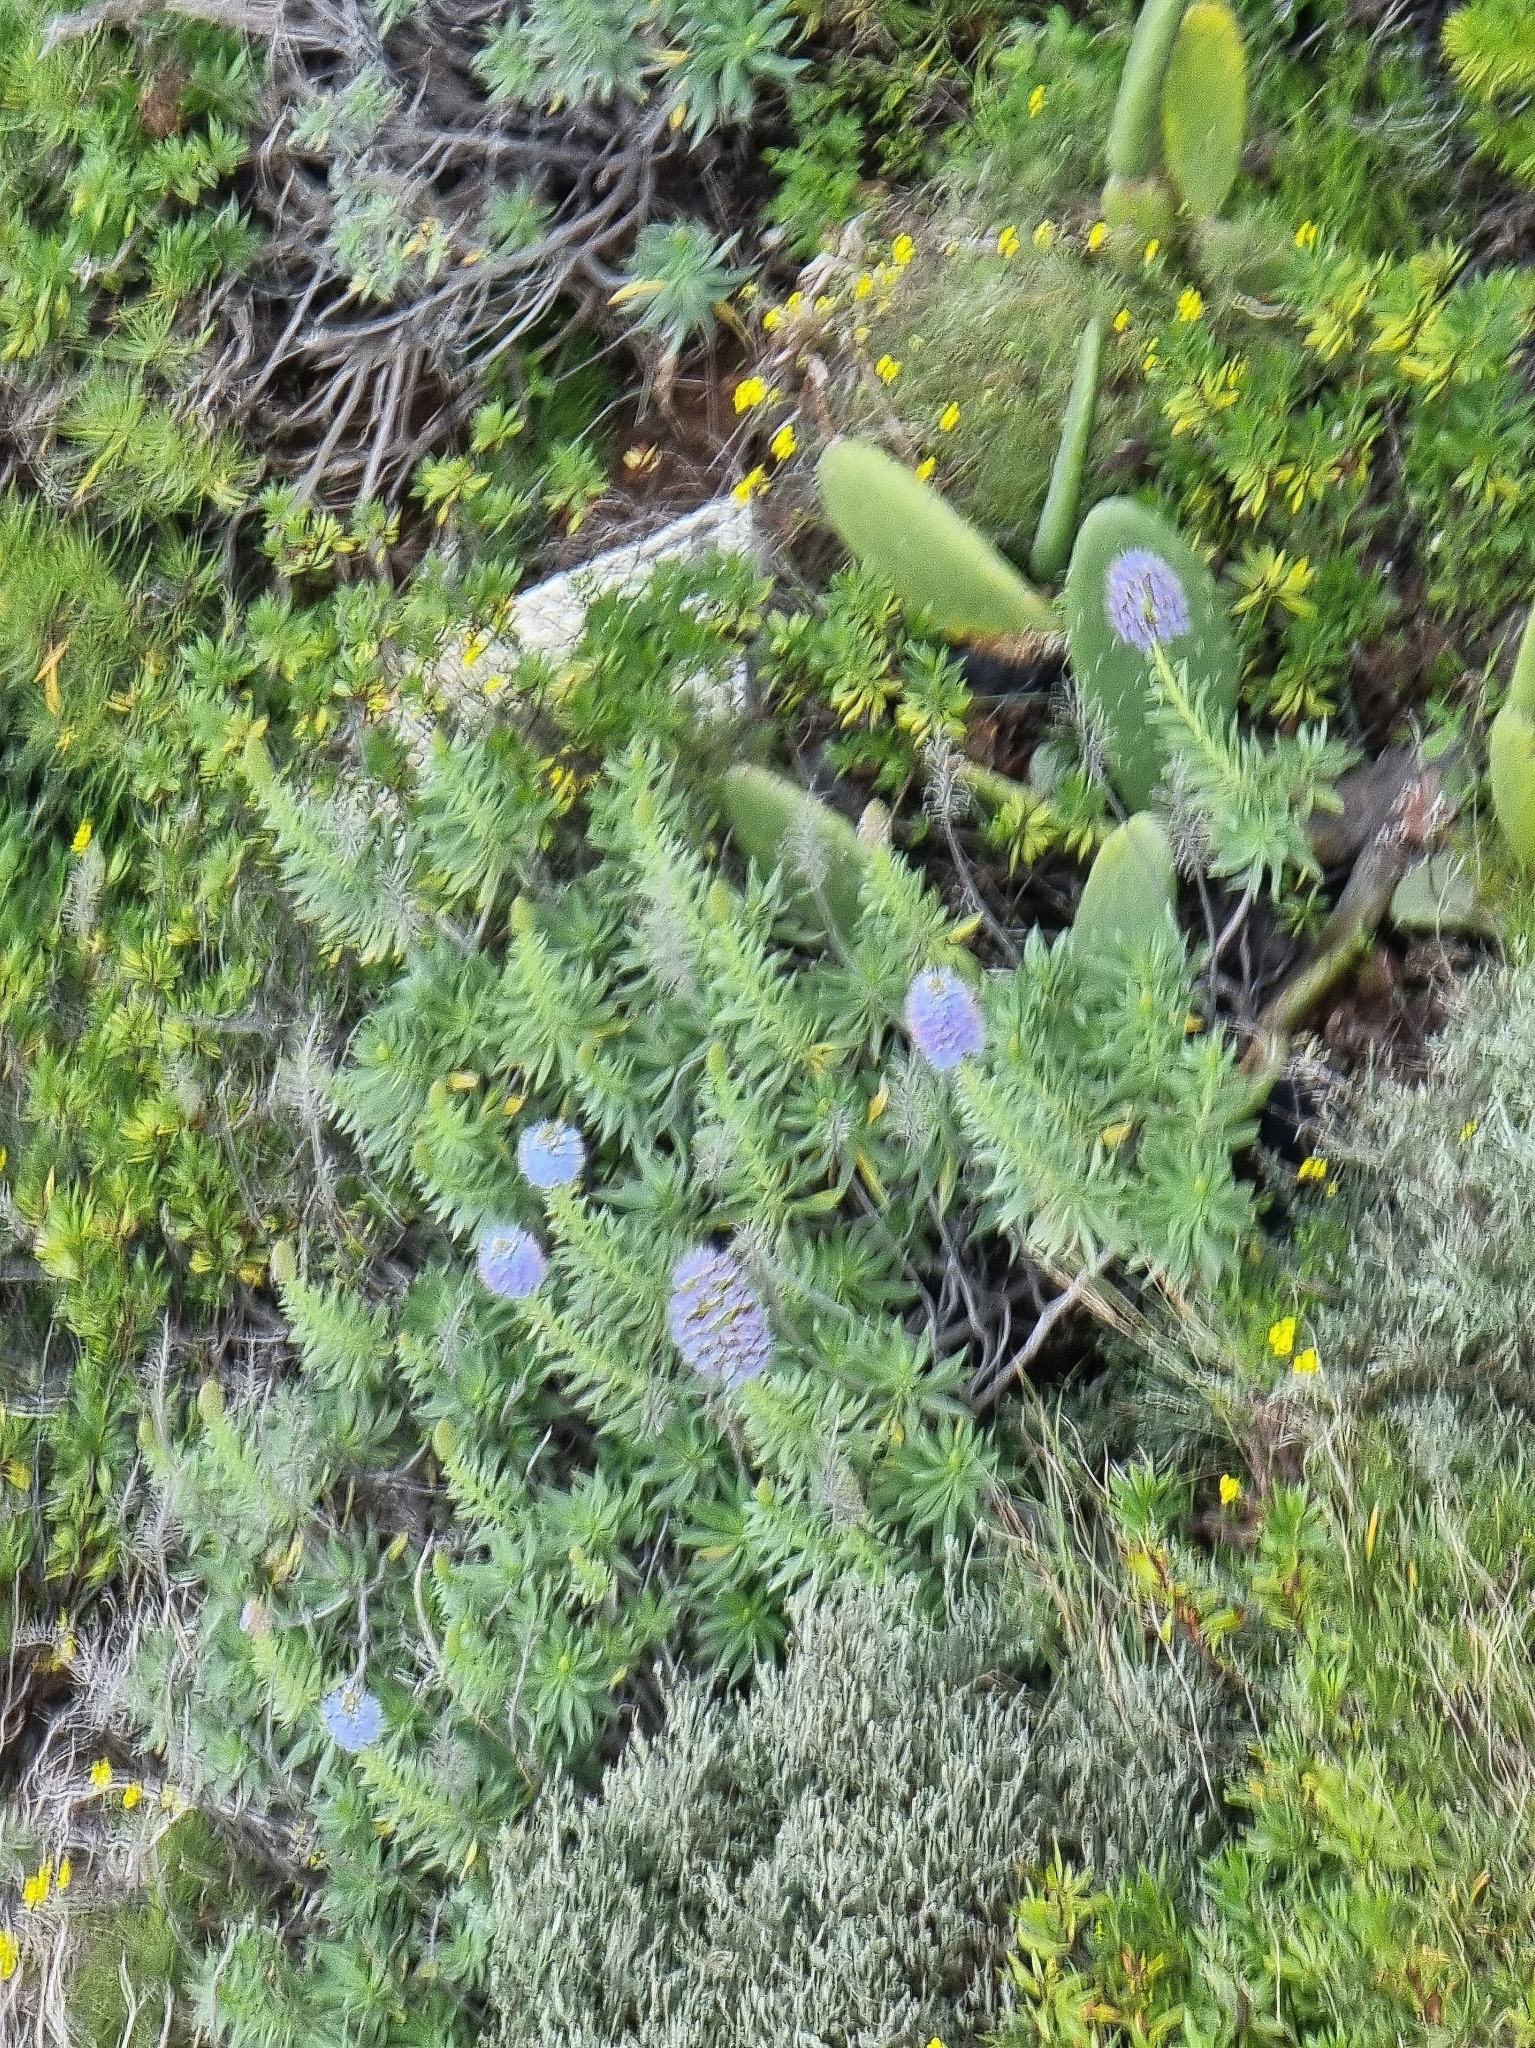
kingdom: Plantae
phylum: Tracheophyta
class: Magnoliopsida
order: Boraginales
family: Boraginaceae
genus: Echium
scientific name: Echium nervosum
